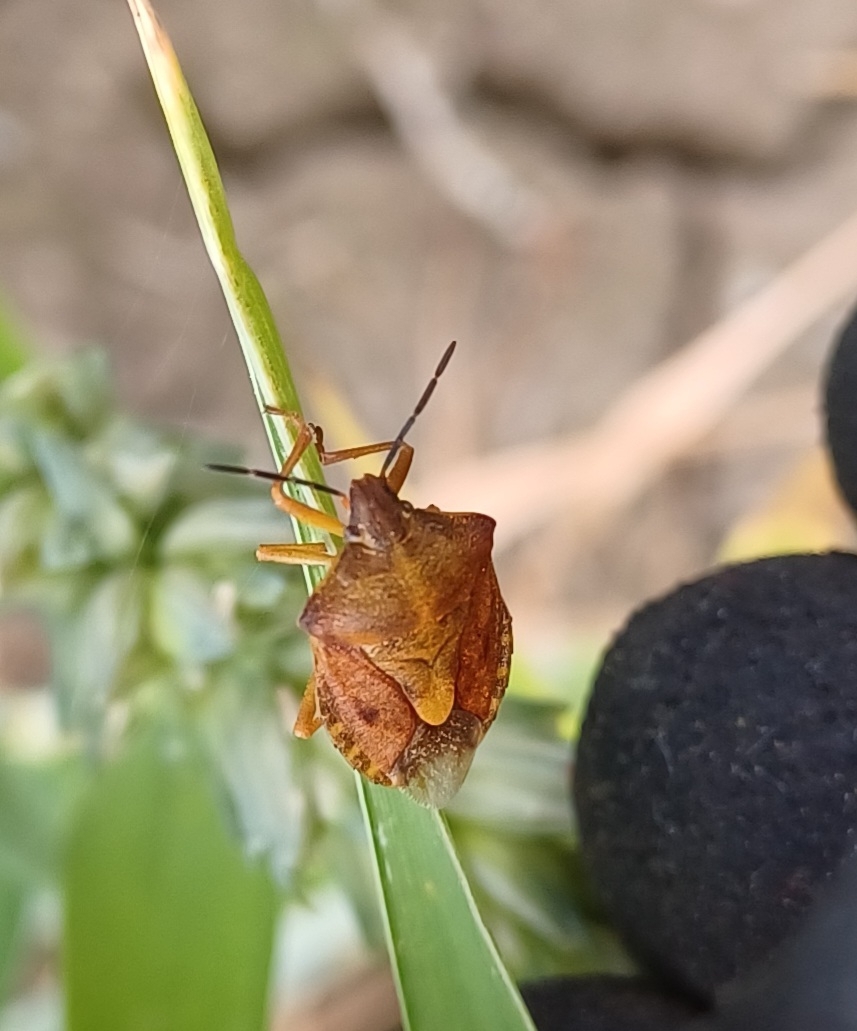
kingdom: Animalia
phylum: Arthropoda
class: Insecta
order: Hemiptera
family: Pentatomidae
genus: Carpocoris
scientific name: Carpocoris purpureipennis
